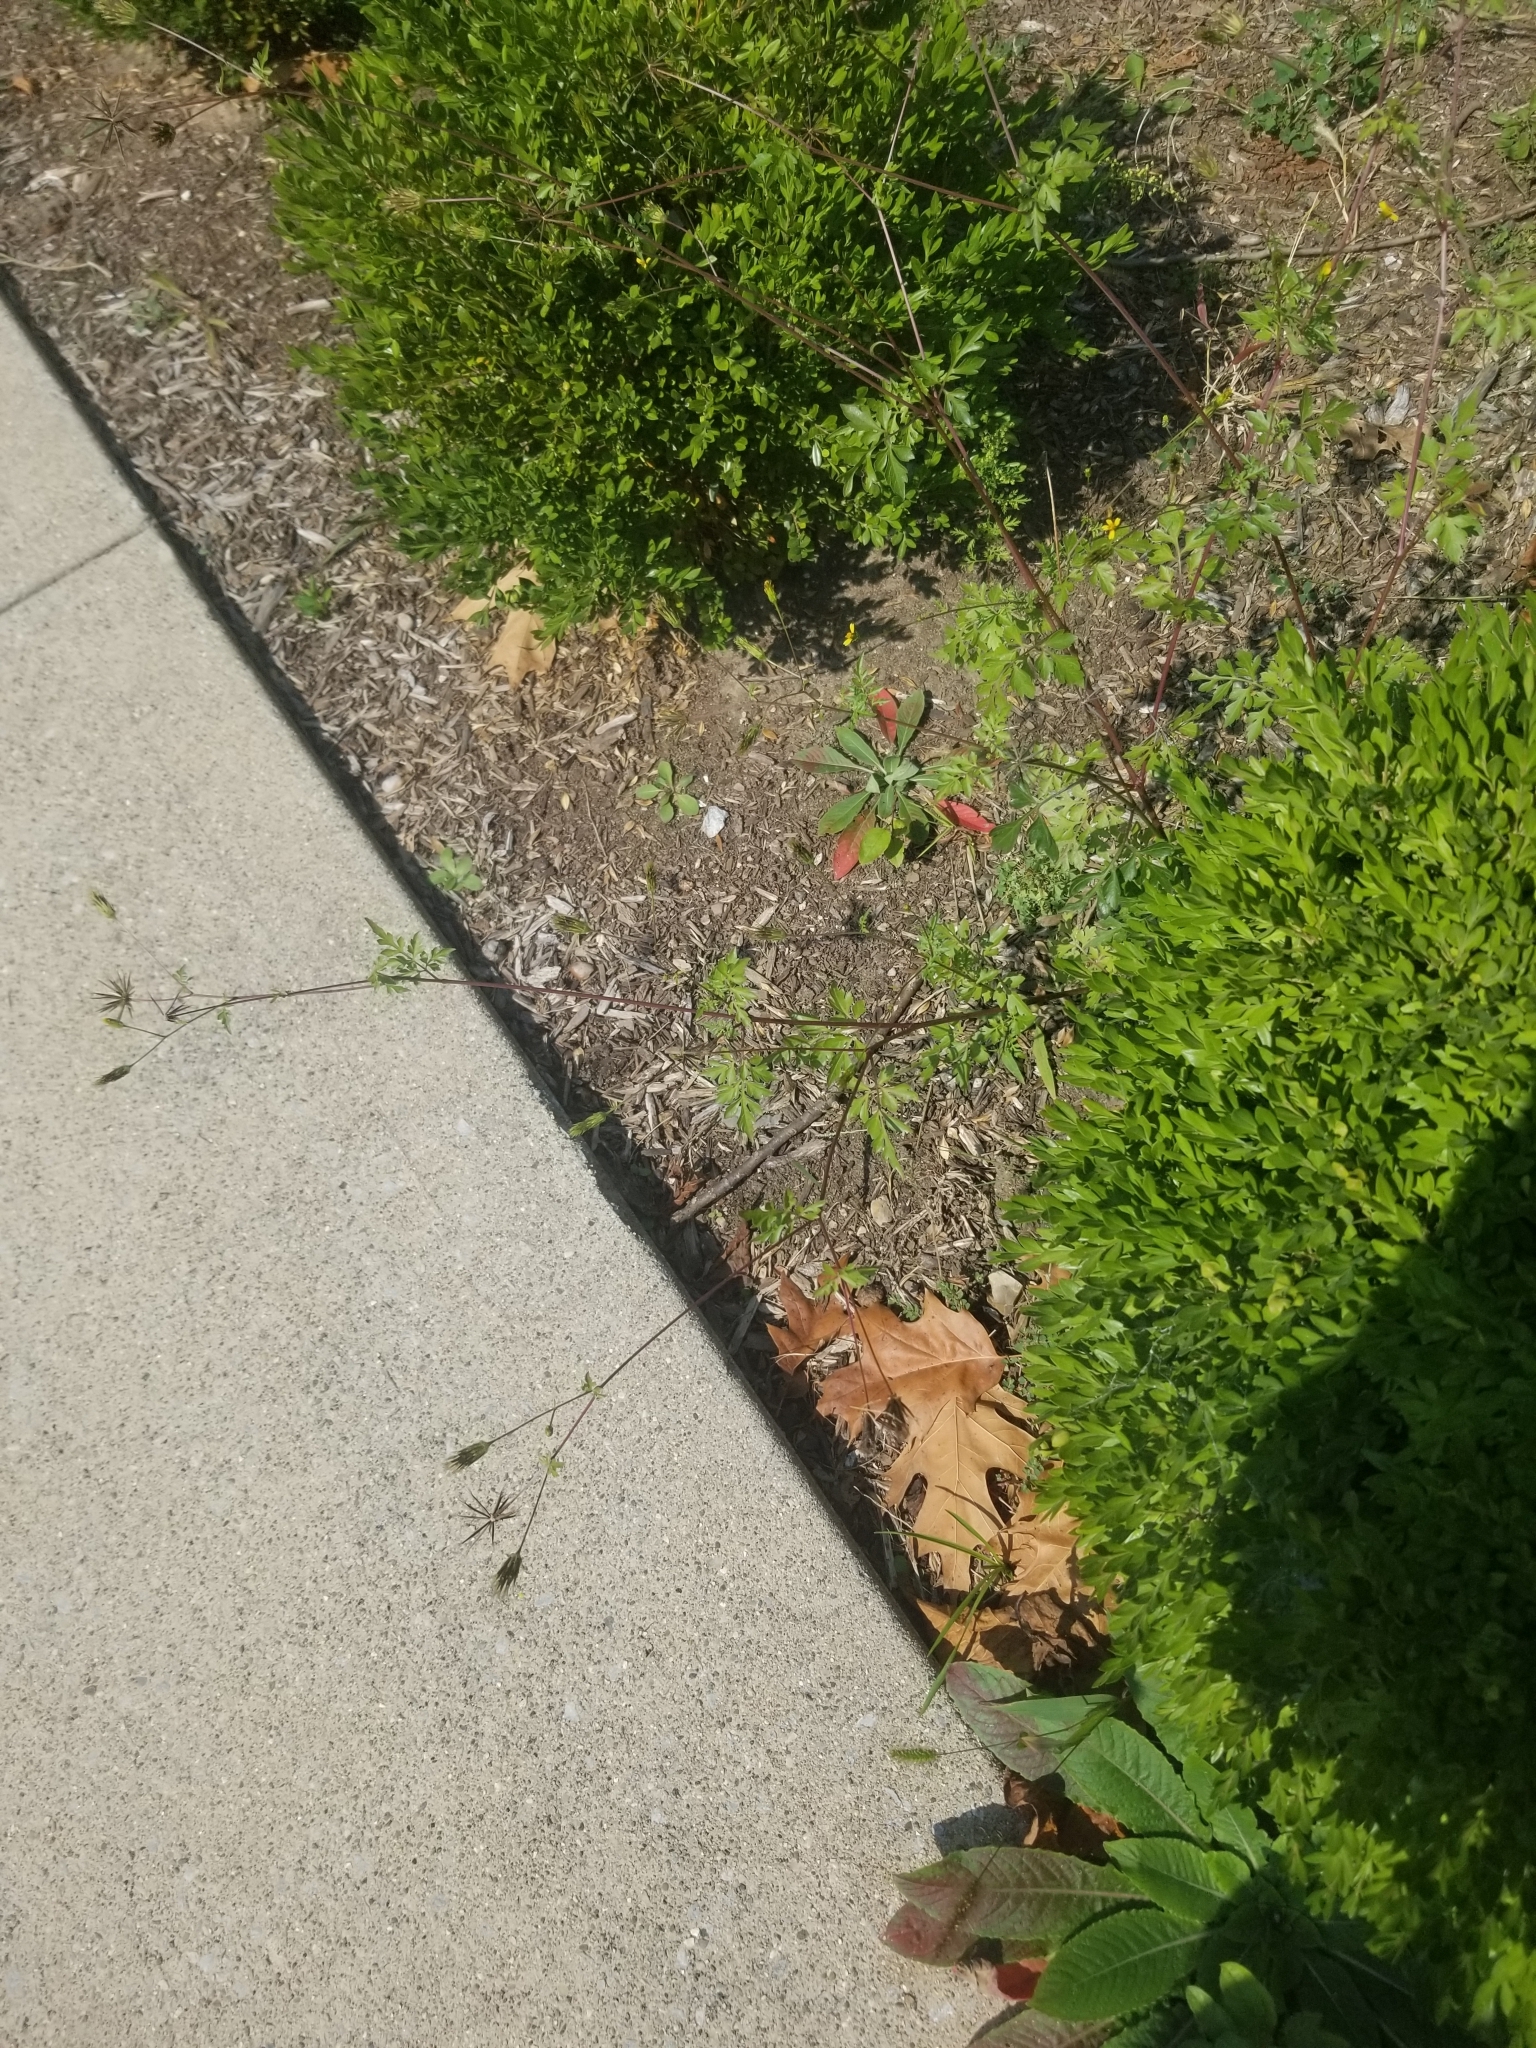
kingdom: Plantae
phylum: Tracheophyta
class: Magnoliopsida
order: Asterales
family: Asteraceae
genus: Bidens
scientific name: Bidens bipinnata
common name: Spanish-needles
